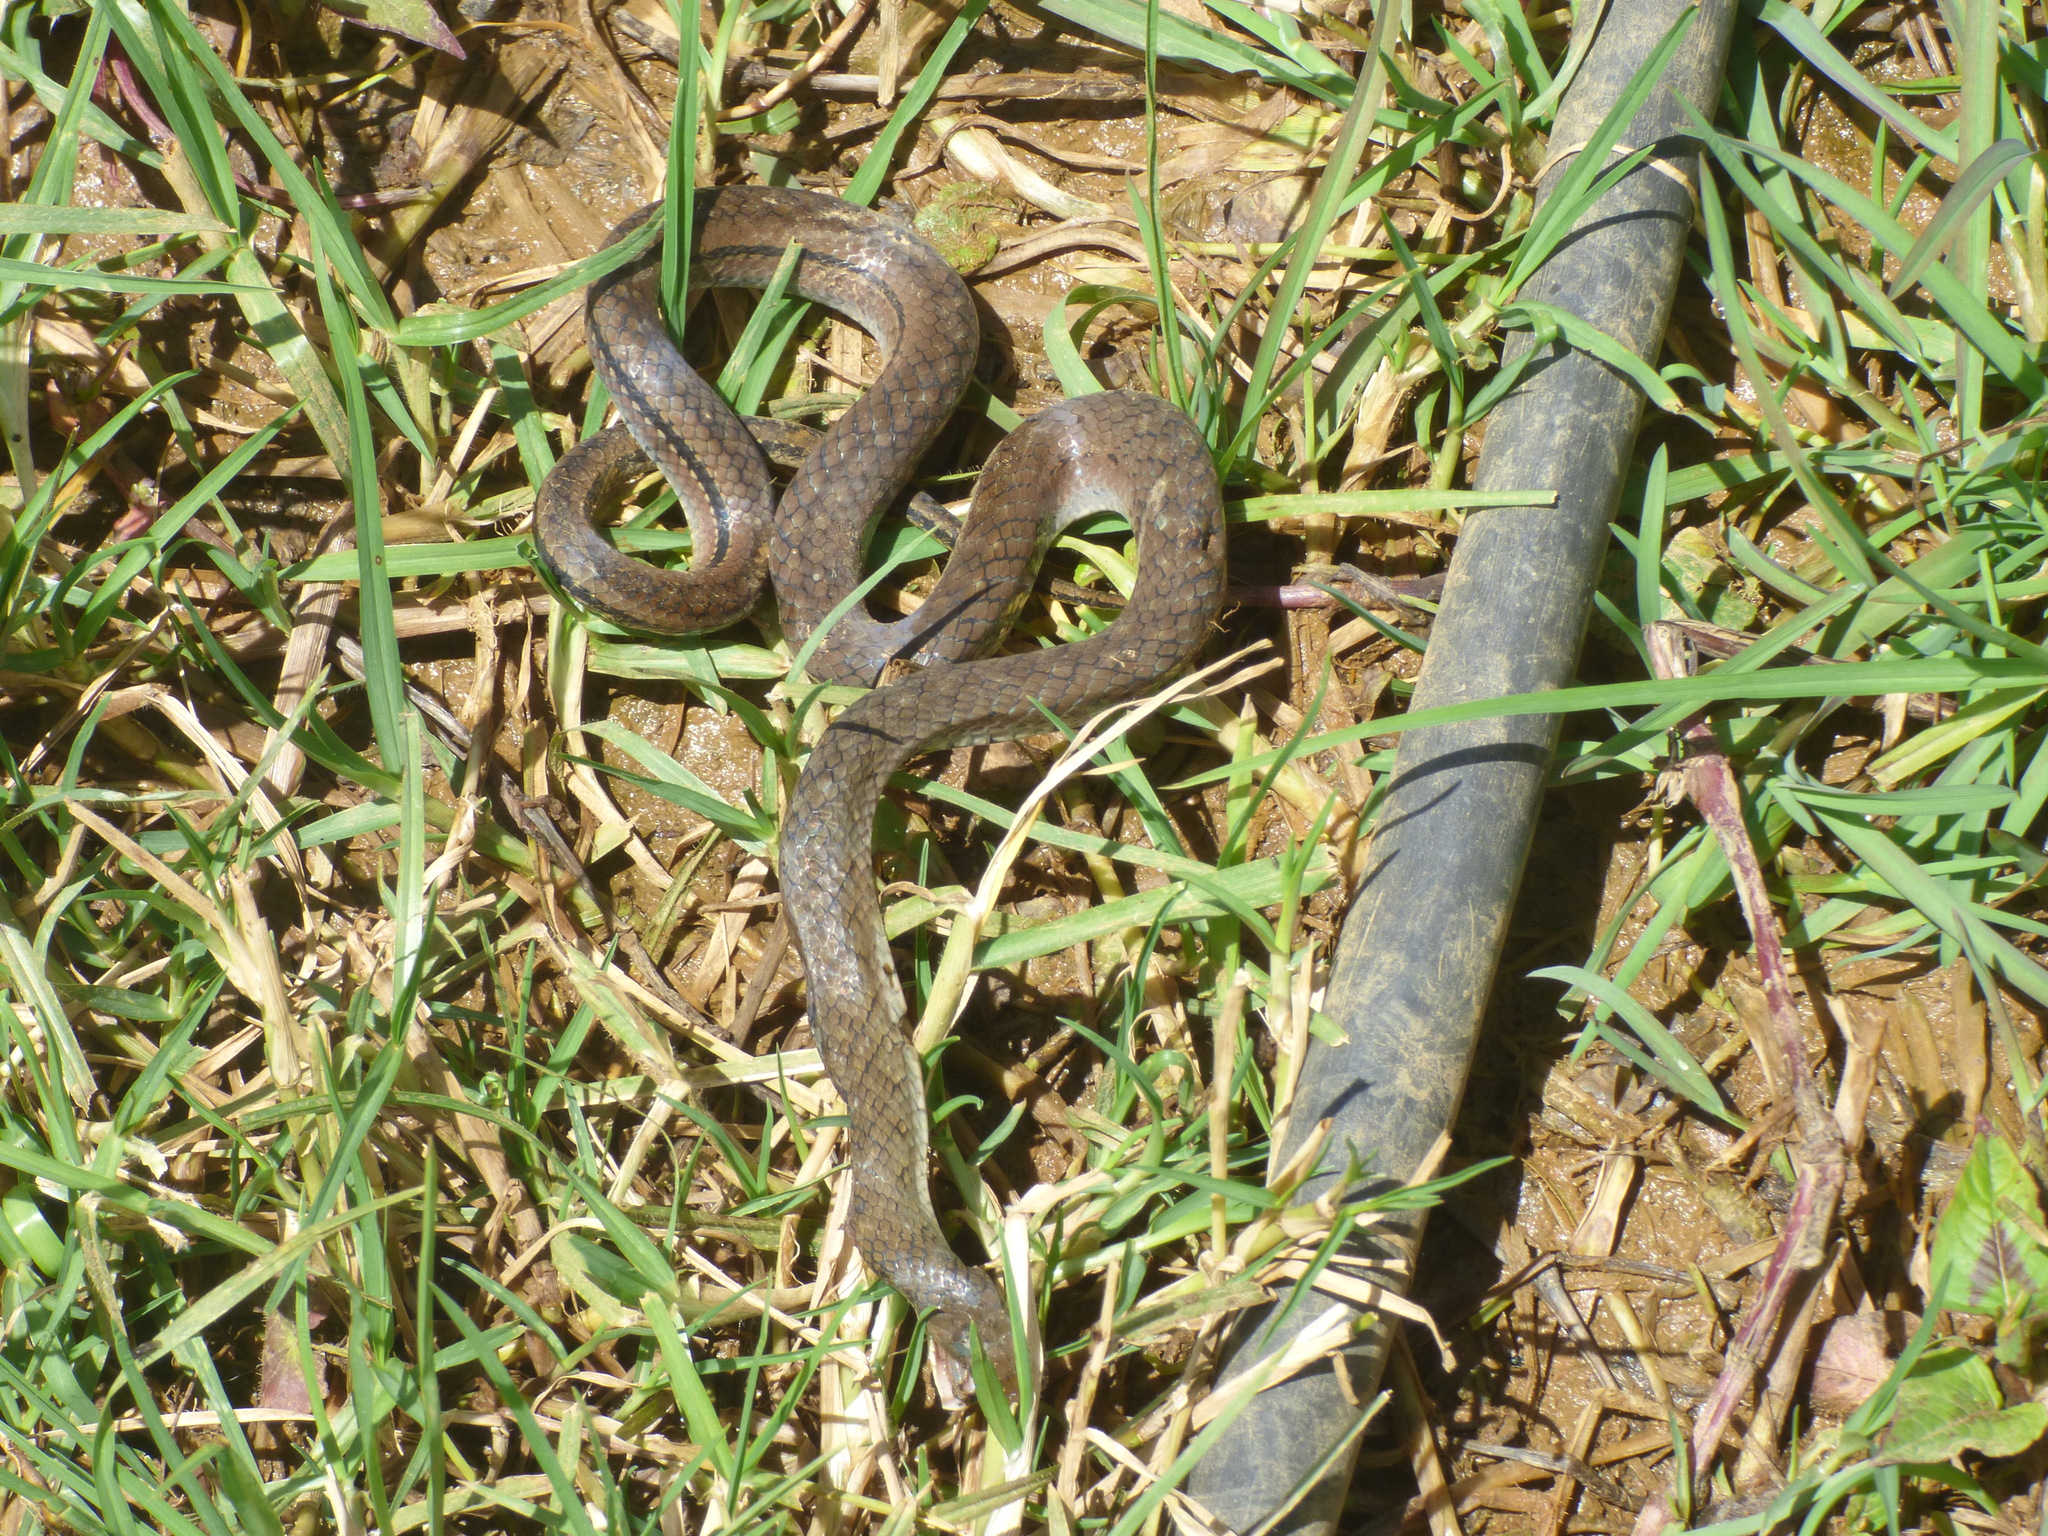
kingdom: Animalia
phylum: Chordata
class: Squamata
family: Colubridae
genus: Erythrolamprus
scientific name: Erythrolamprus epinephelus
